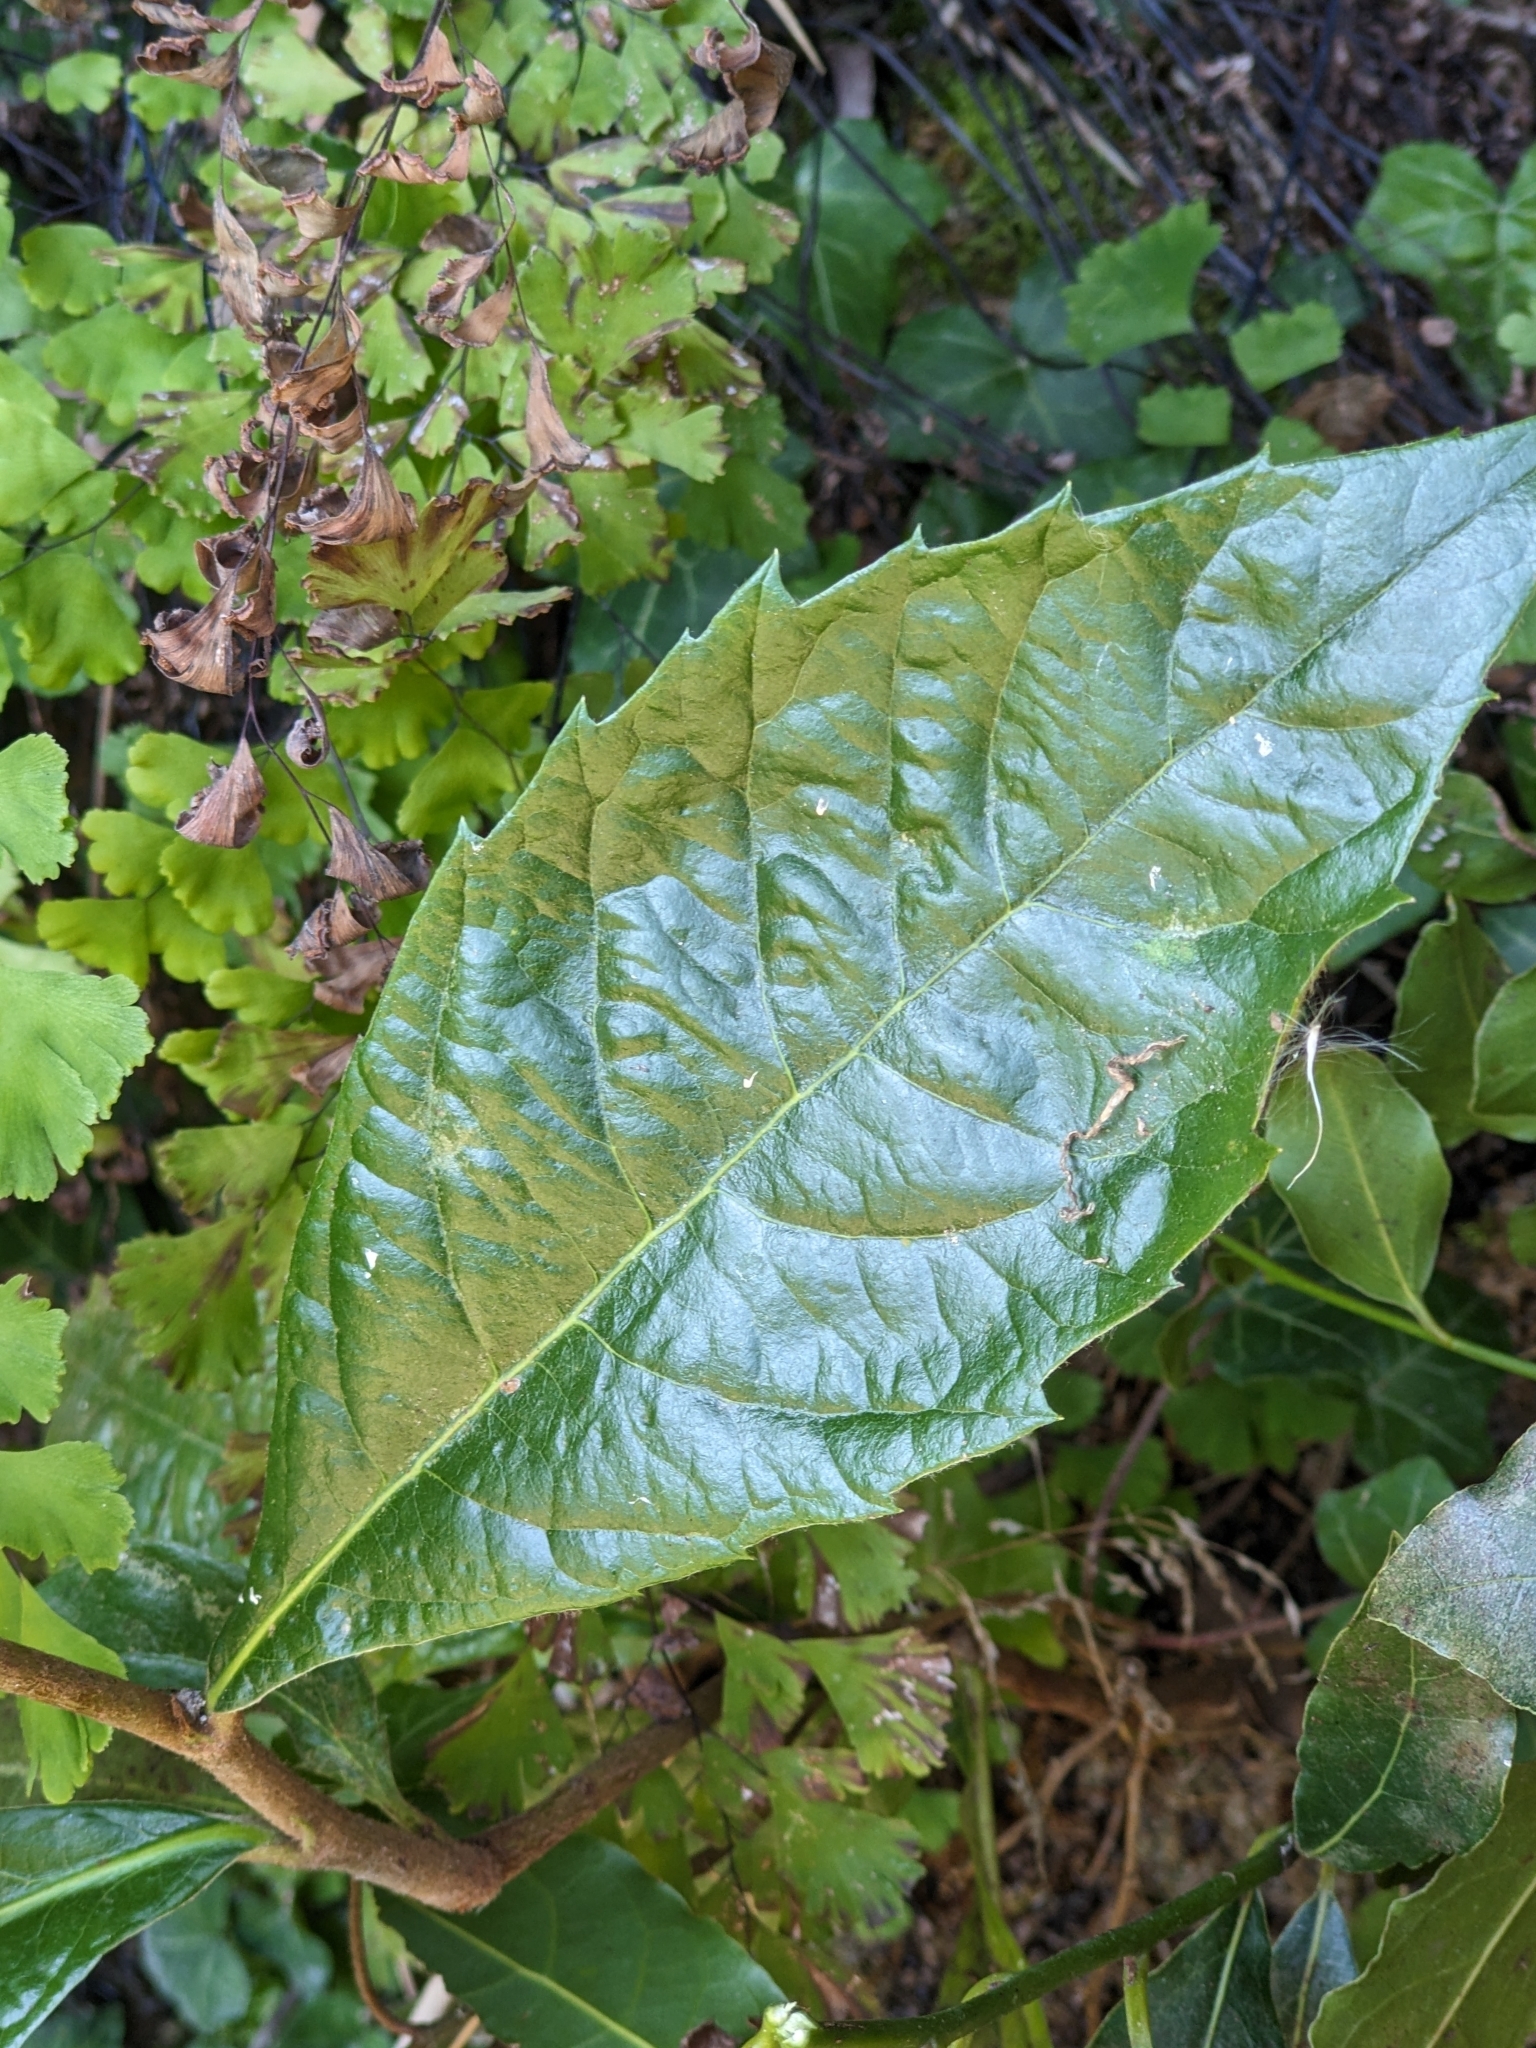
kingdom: Plantae
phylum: Tracheophyta
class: Magnoliopsida
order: Rosales
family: Rosaceae
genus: Rhaphiolepis
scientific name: Rhaphiolepis bibas
